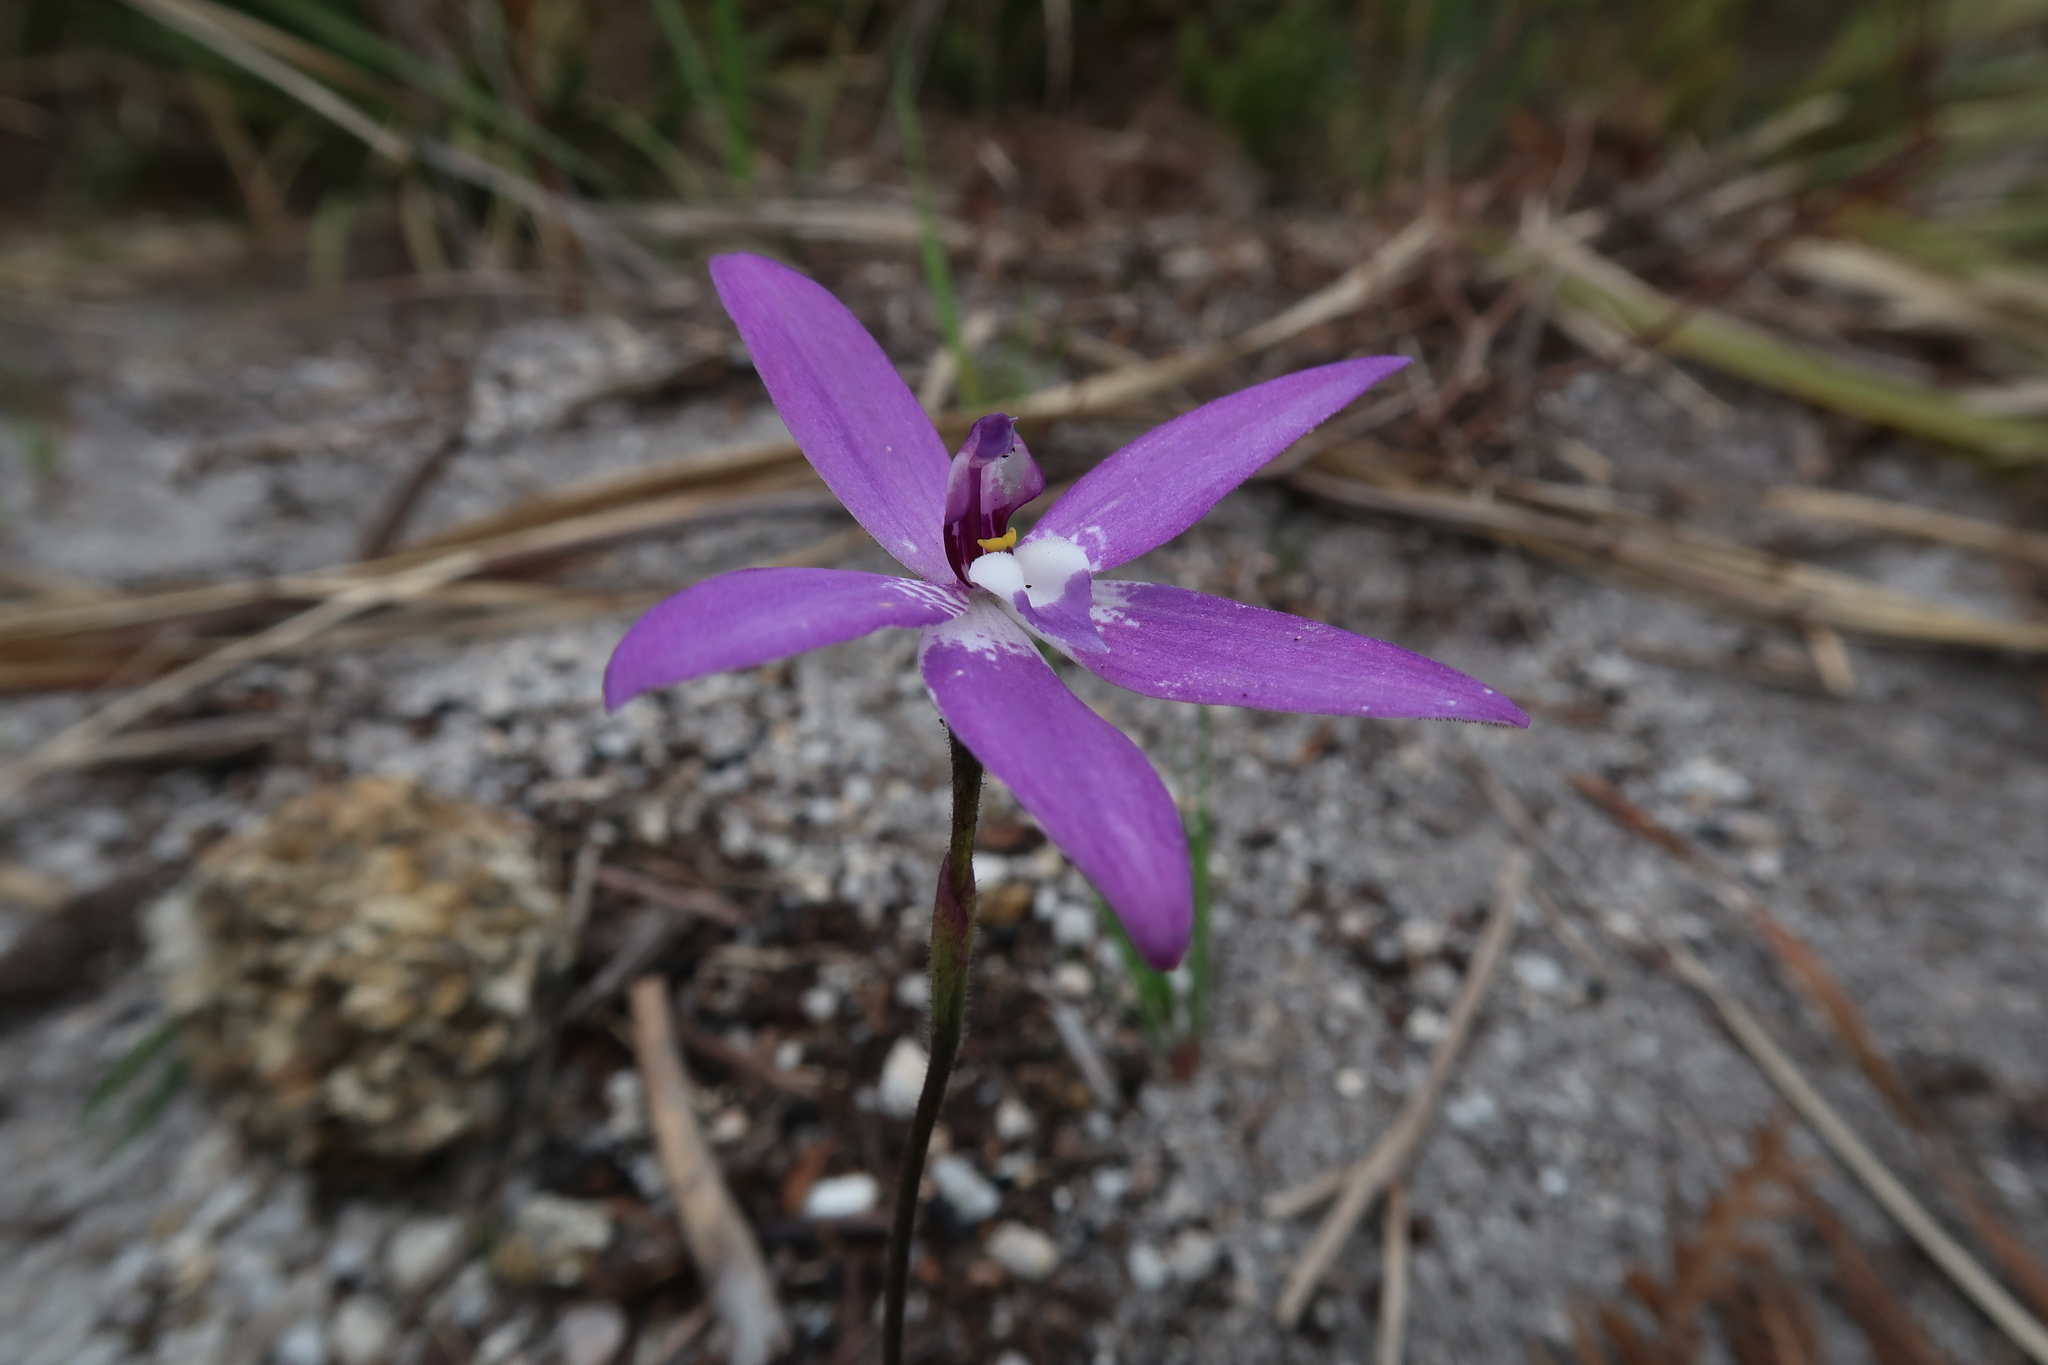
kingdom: Plantae
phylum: Tracheophyta
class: Liliopsida
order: Asparagales
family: Orchidaceae
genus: Caladenia
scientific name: Caladenia major
